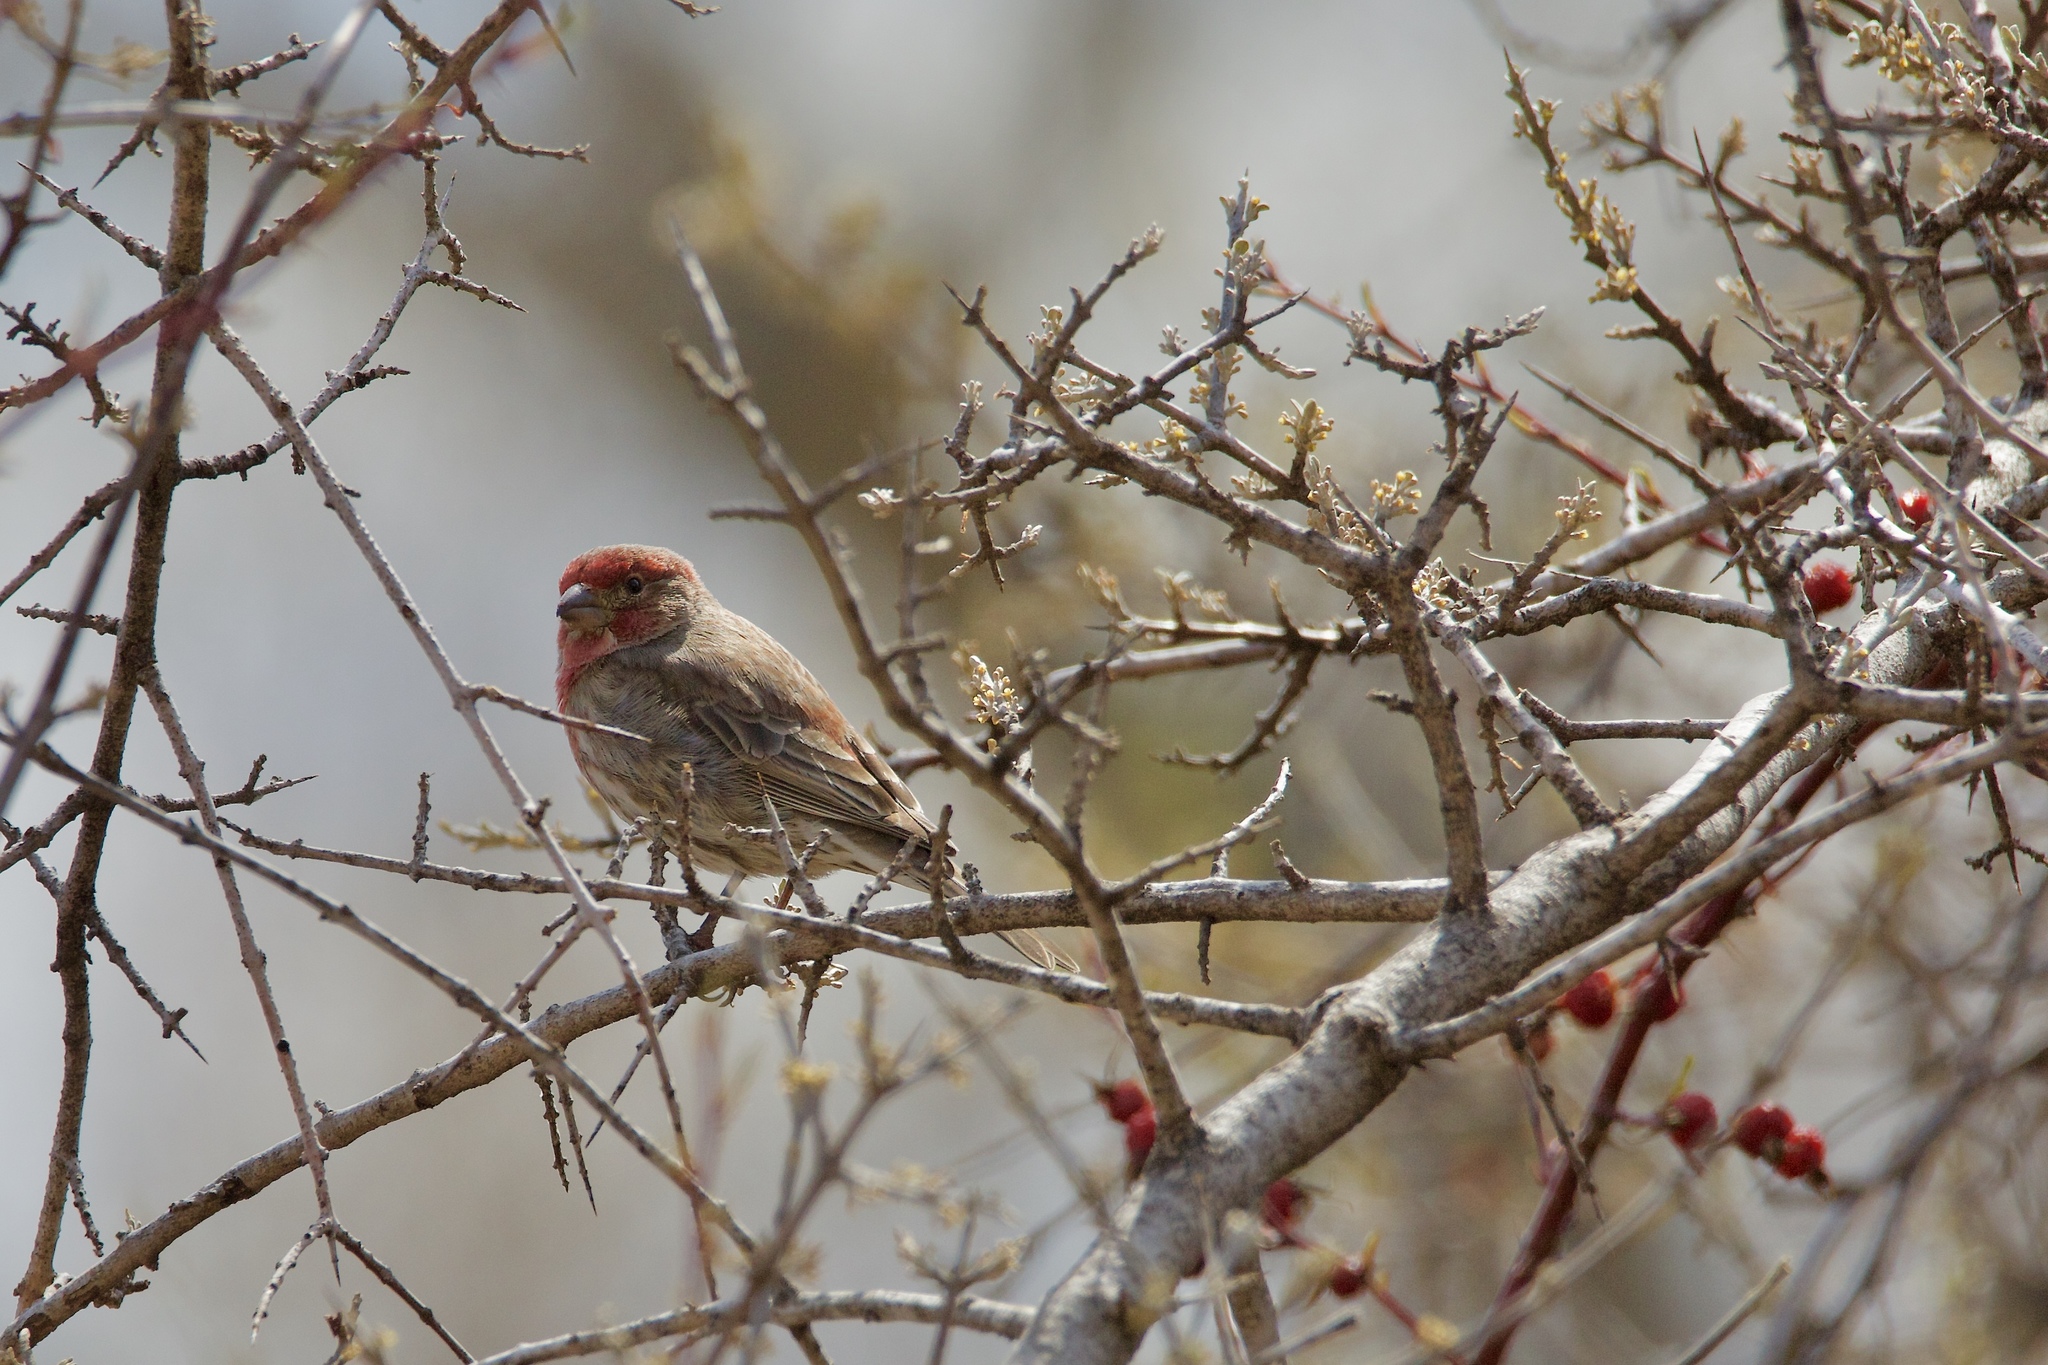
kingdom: Animalia
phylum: Chordata
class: Aves
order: Passeriformes
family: Fringillidae
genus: Haemorhous
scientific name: Haemorhous mexicanus
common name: House finch
